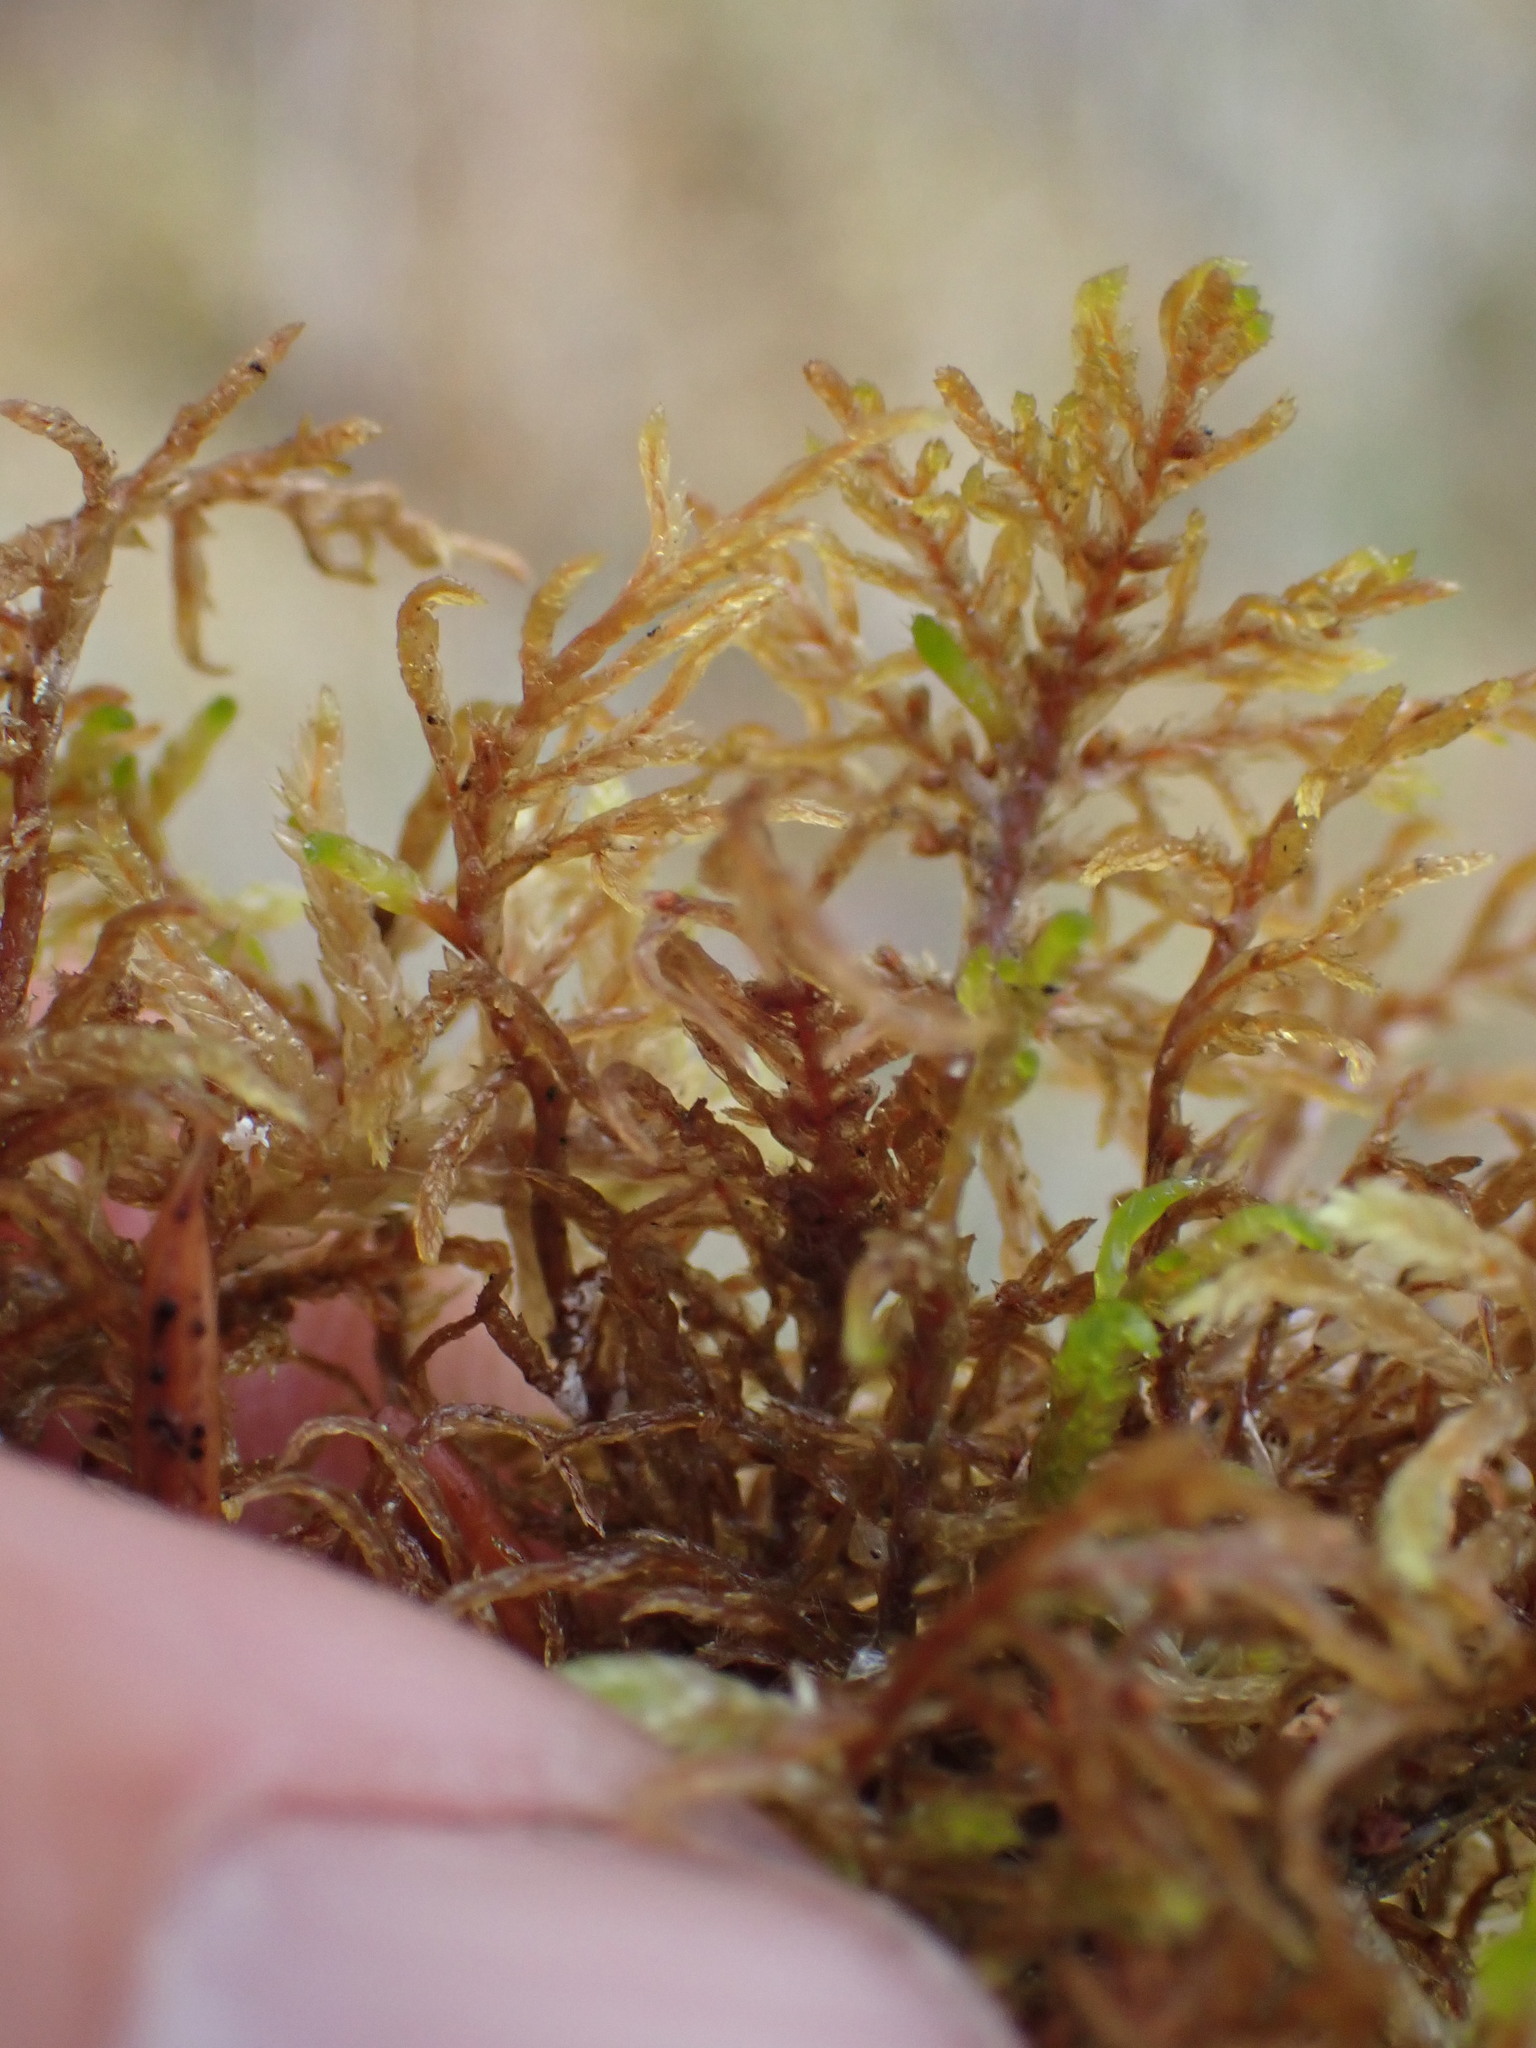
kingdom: Plantae
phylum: Bryophyta
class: Bryopsida
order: Hypnales
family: Hylocomiaceae
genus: Hylocomium
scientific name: Hylocomium splendens
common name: Stairstep moss
